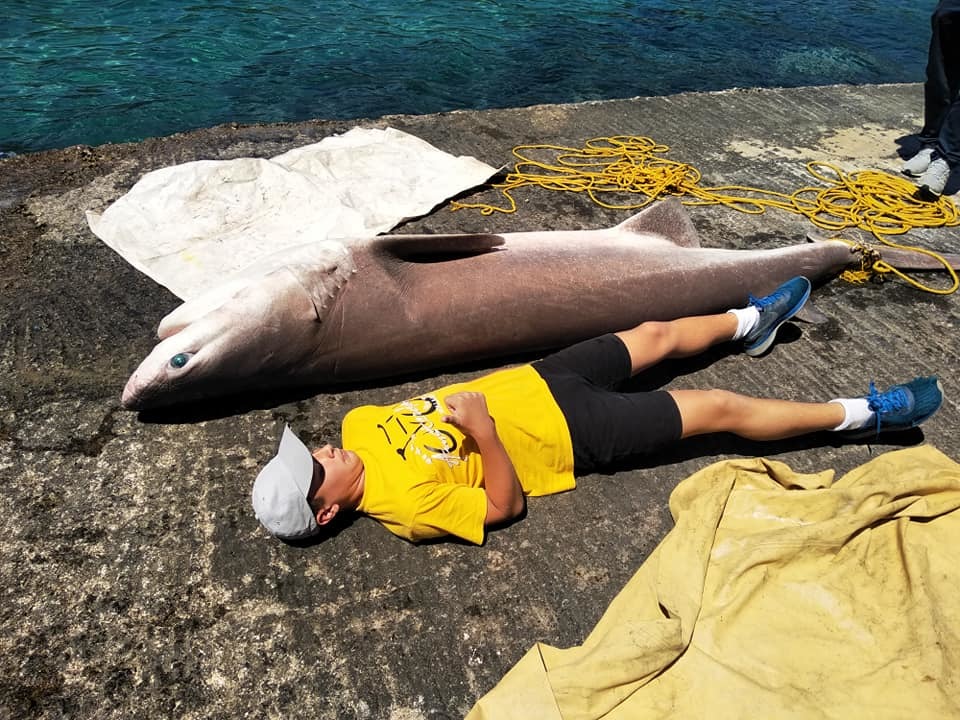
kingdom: Animalia
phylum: Chordata
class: Elasmobranchii
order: Hexanchiformes
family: Hexanchidae
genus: Hexanchus
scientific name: Hexanchus griseus
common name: Bluntnose sixgill shark
